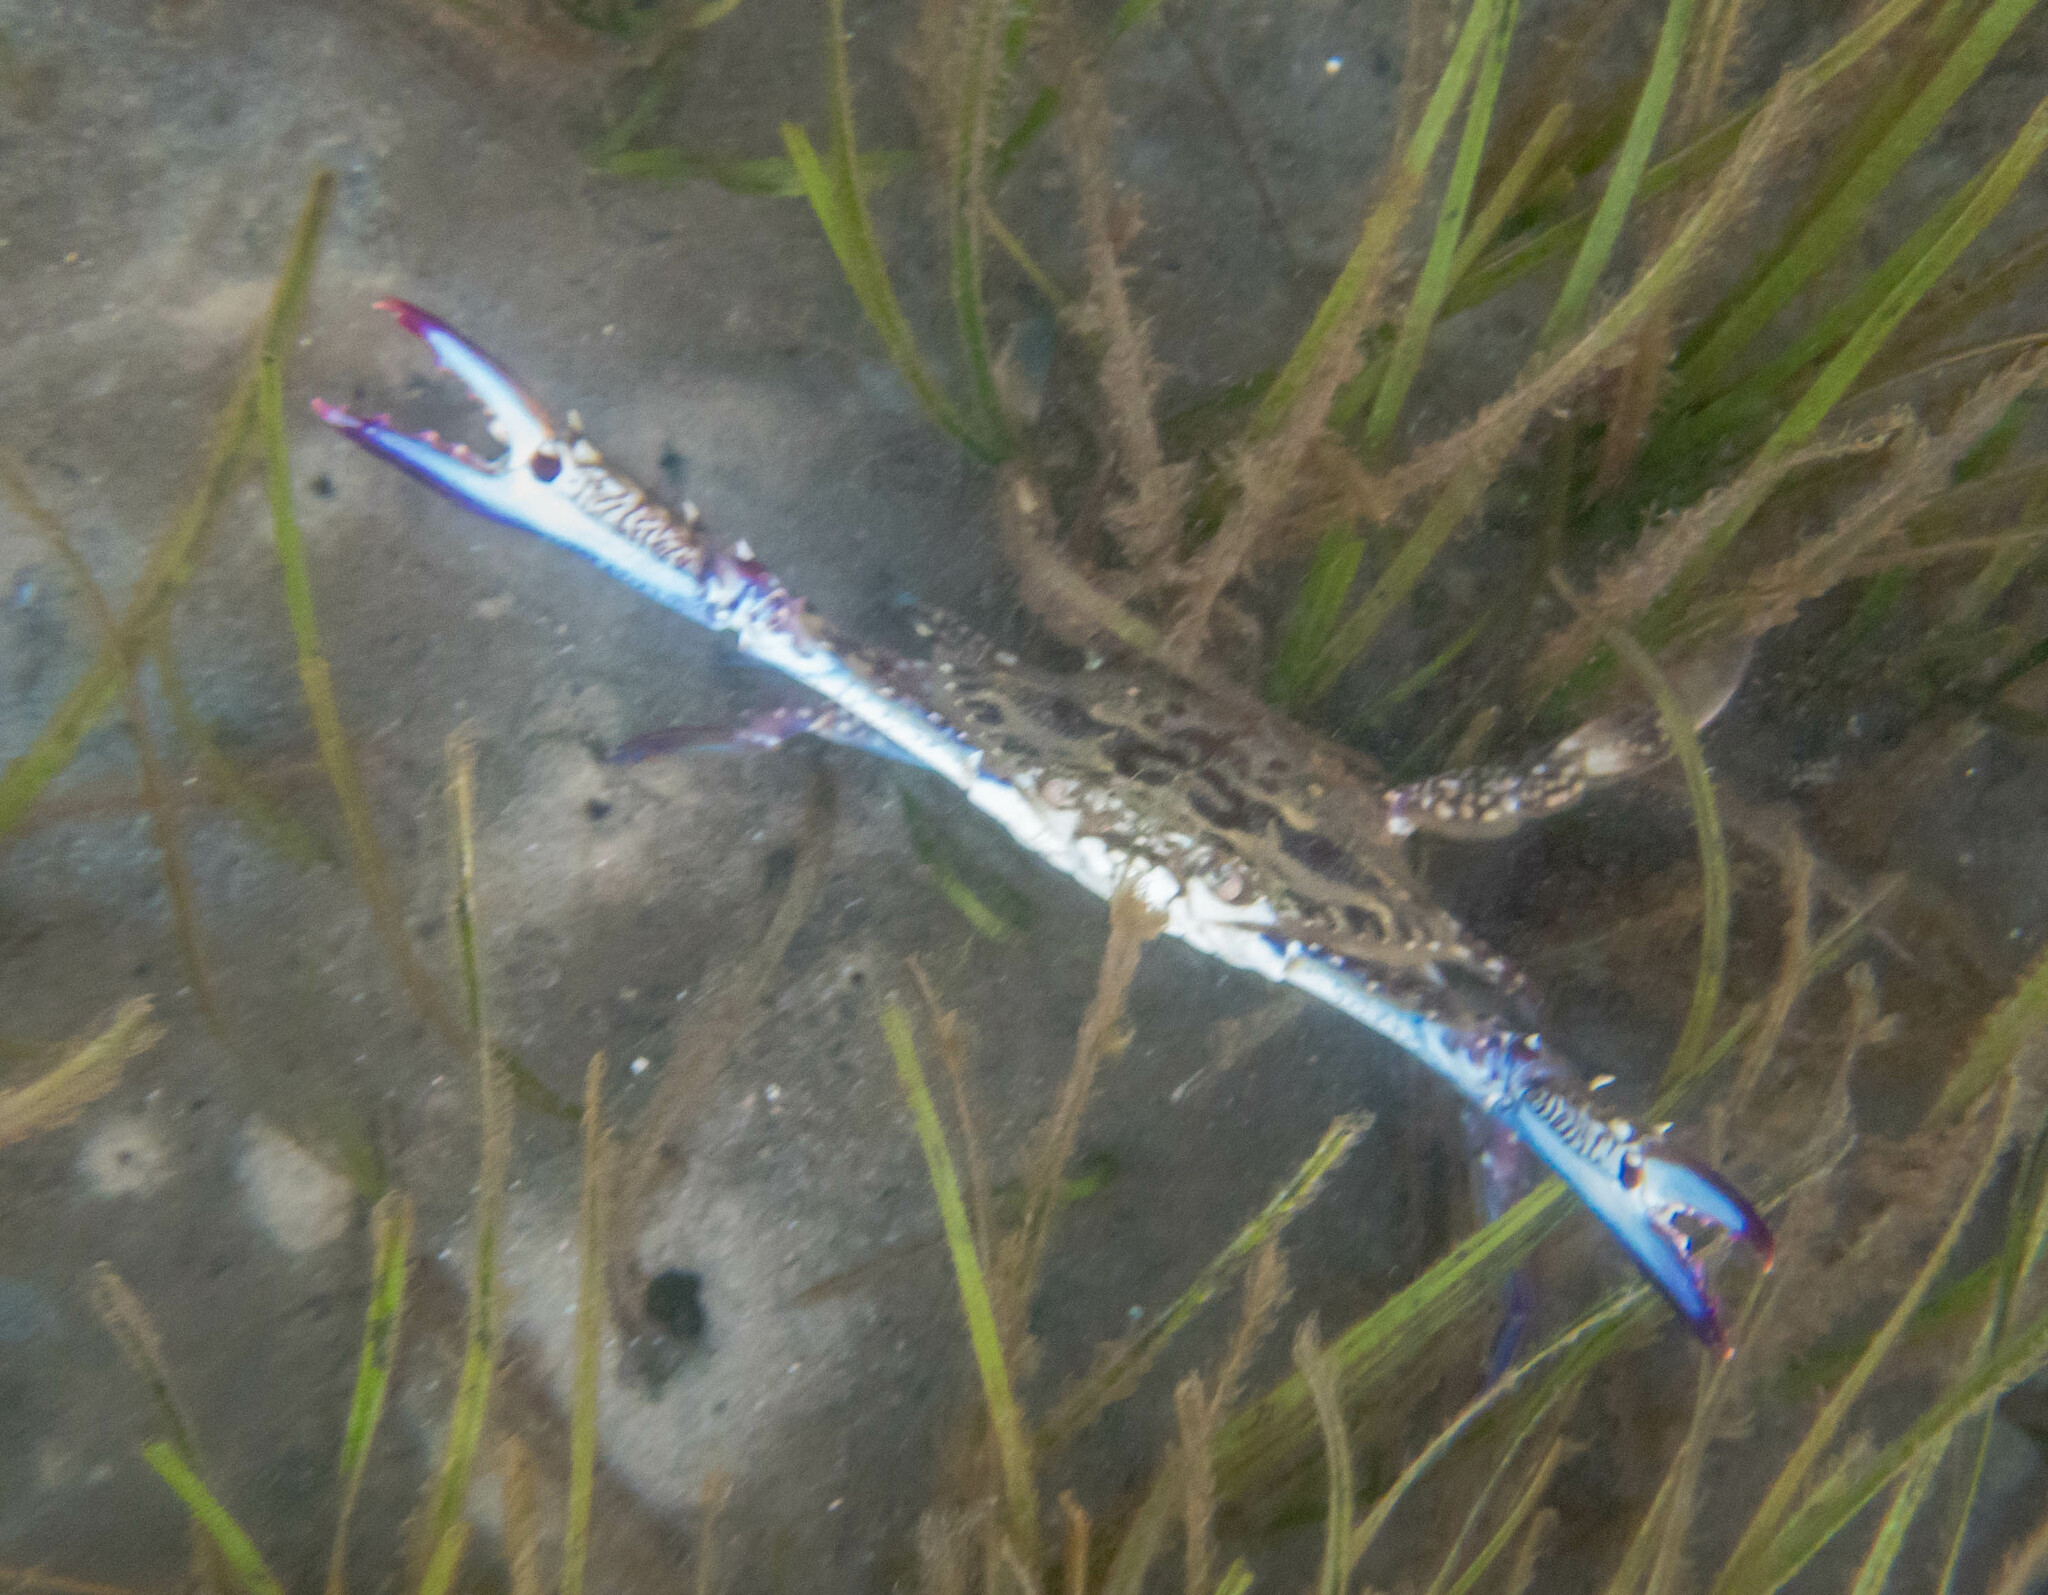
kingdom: Animalia
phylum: Arthropoda
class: Malacostraca
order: Decapoda
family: Portunidae
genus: Portunus
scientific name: Portunus armatus
